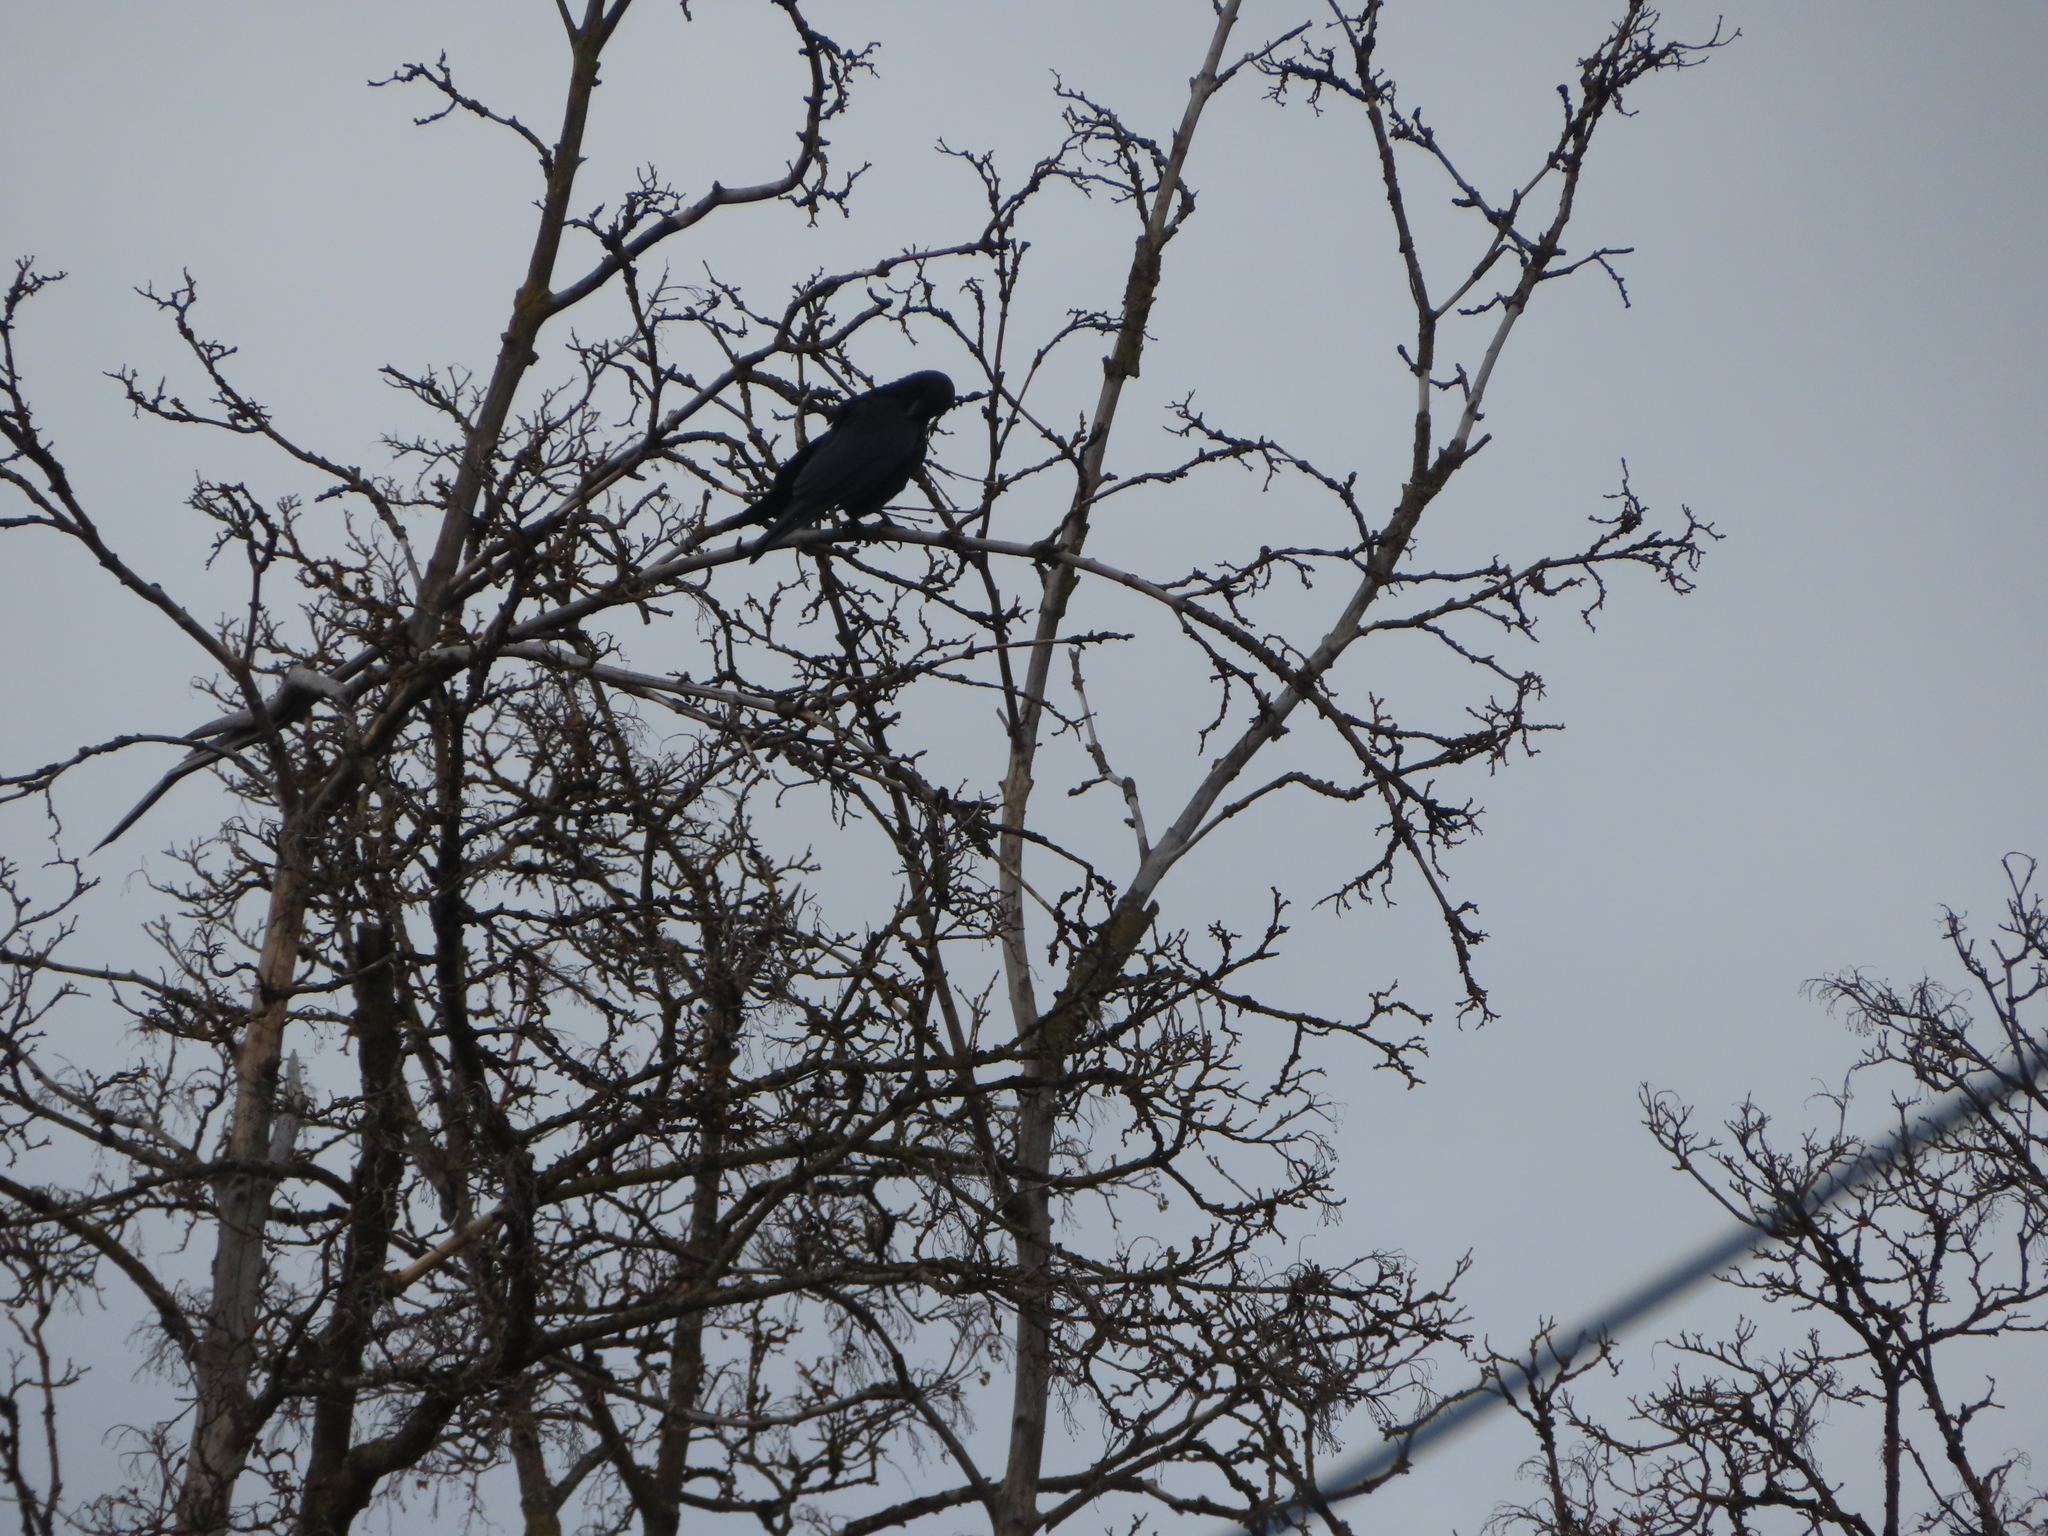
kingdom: Animalia
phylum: Chordata
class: Aves
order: Passeriformes
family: Corvidae
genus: Corvus
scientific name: Corvus brachyrhynchos
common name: American crow
